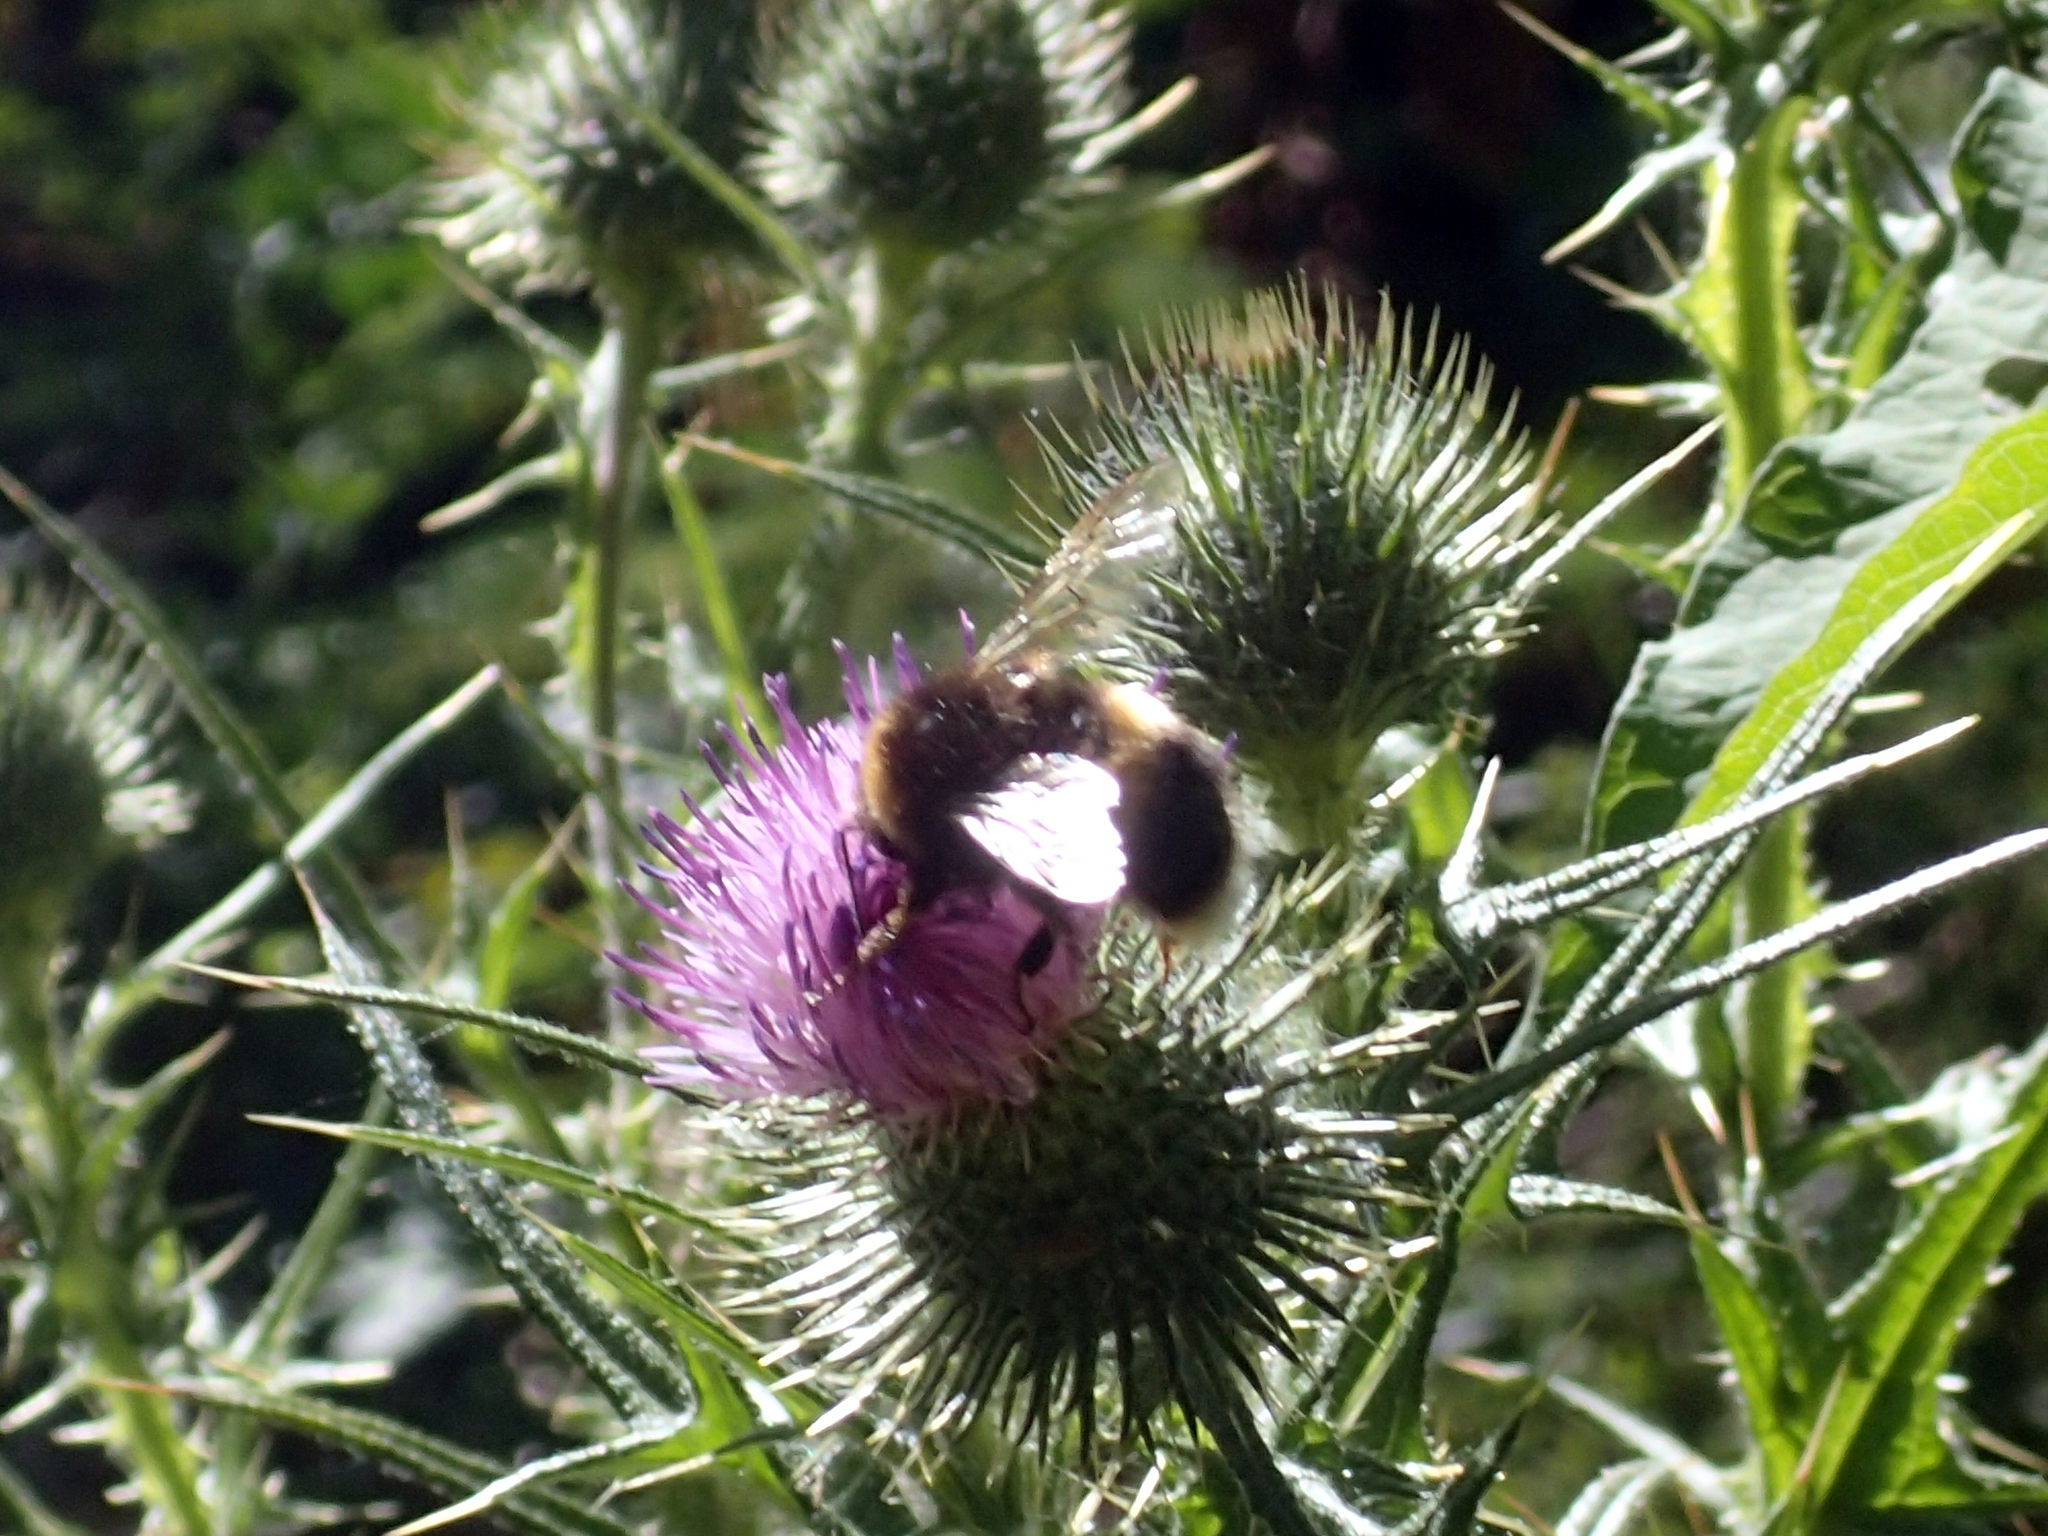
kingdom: Animalia
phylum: Arthropoda
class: Insecta
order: Hymenoptera
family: Apidae
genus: Bombus
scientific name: Bombus terrestris
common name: Buff-tailed bumblebee
